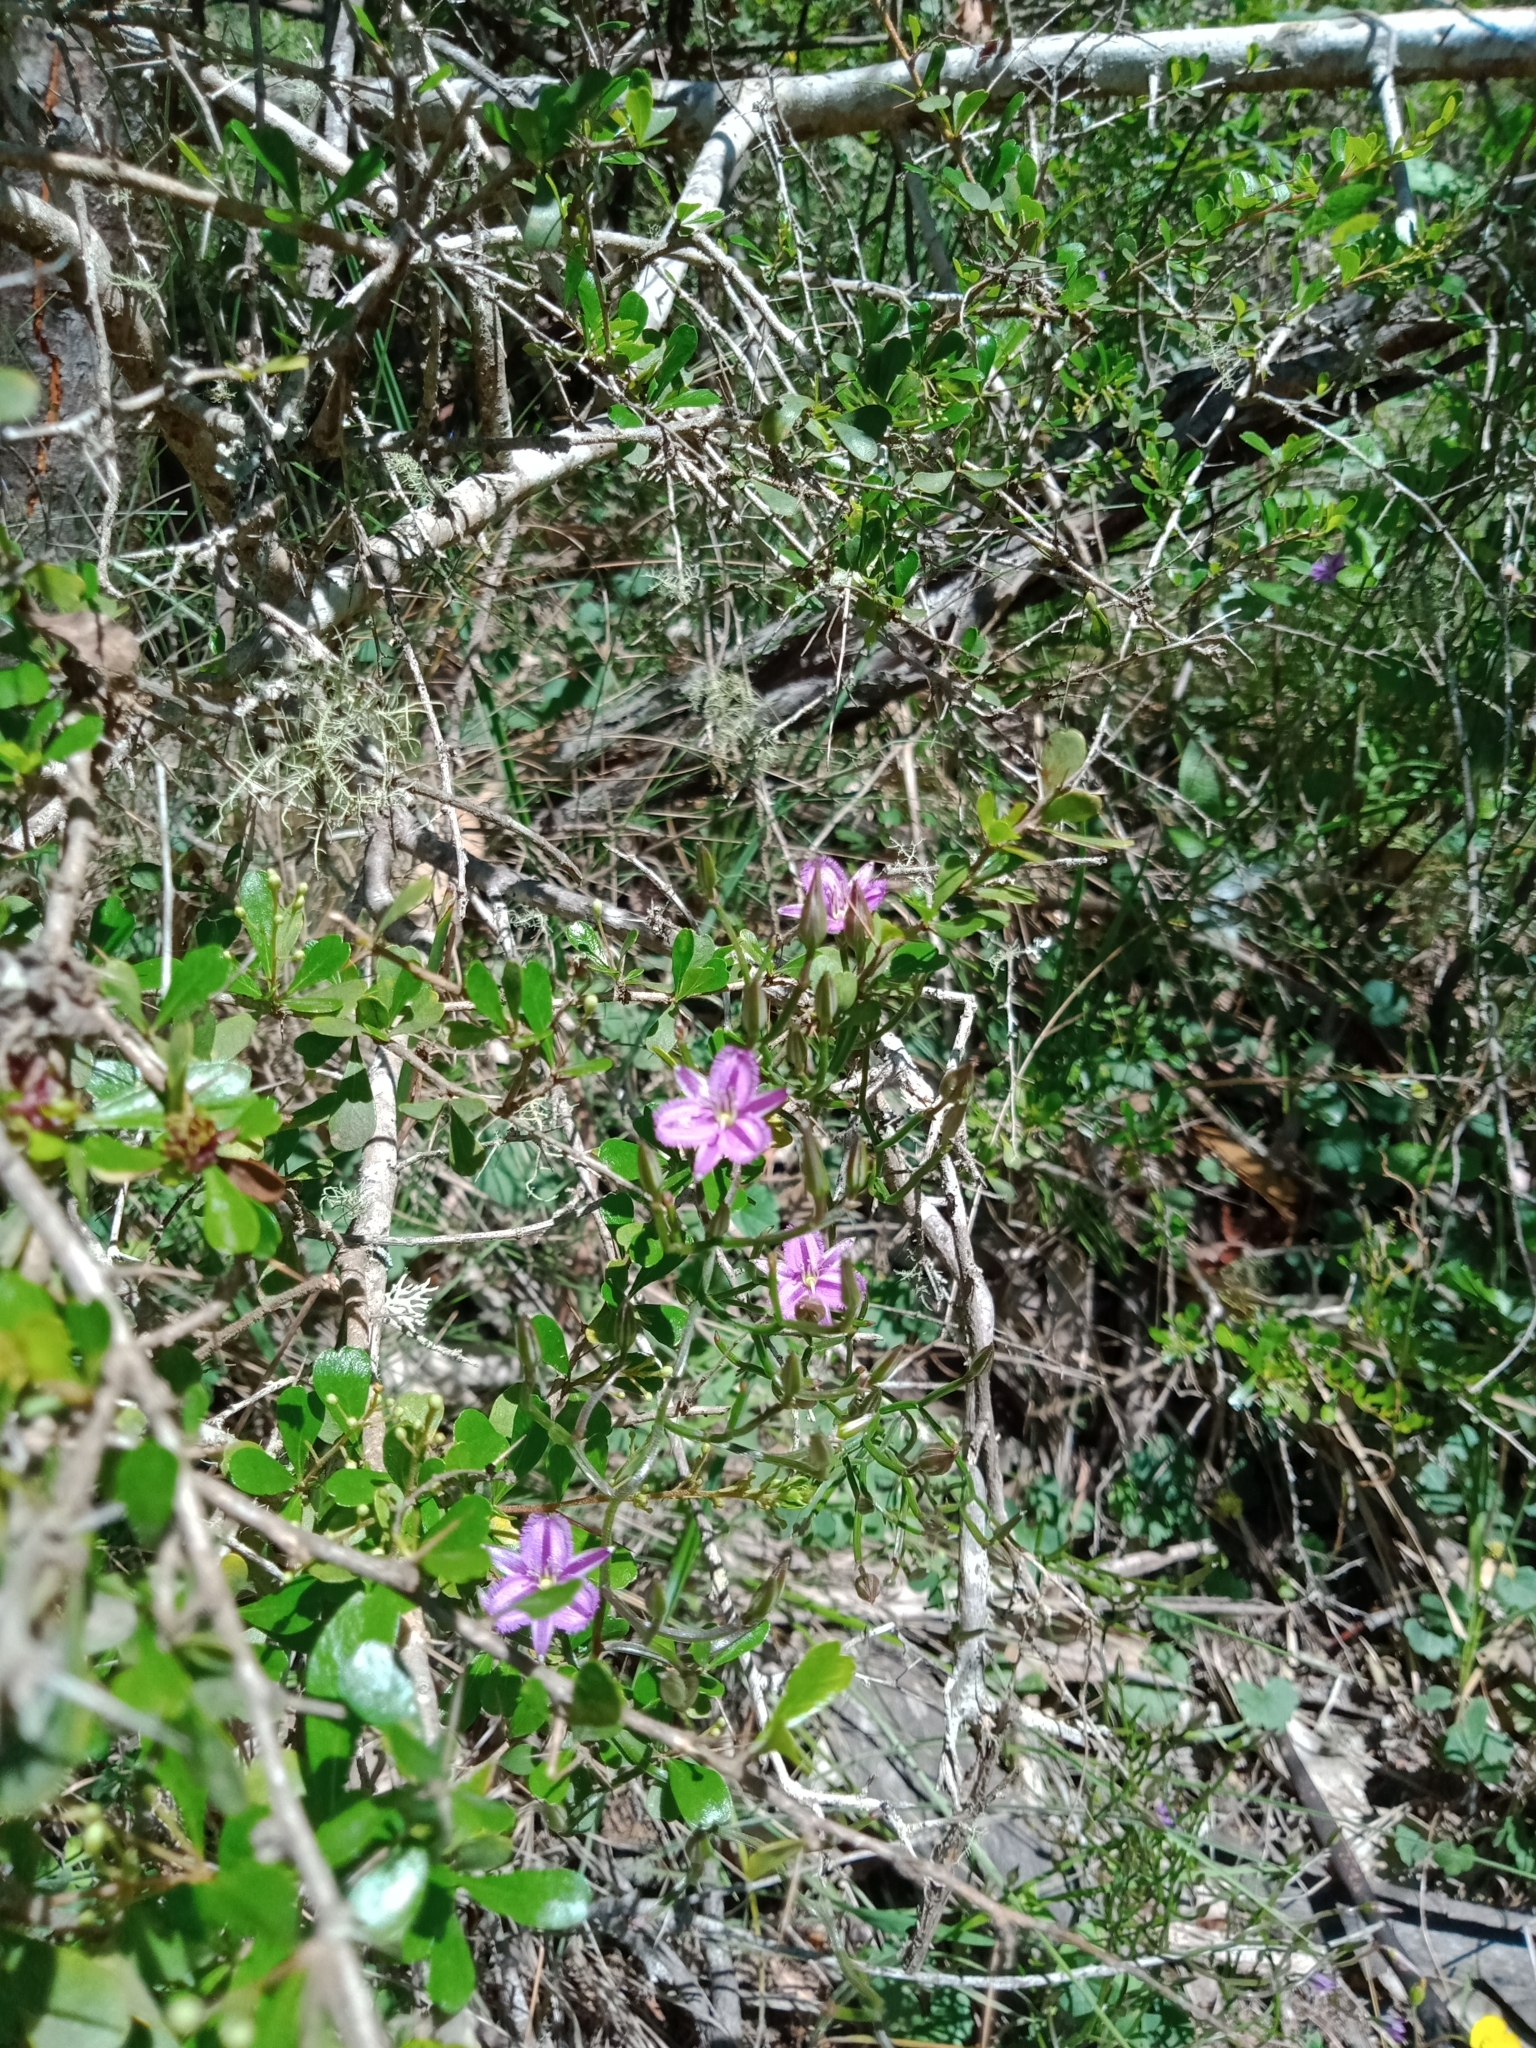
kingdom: Plantae
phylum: Tracheophyta
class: Liliopsida
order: Asparagales
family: Asparagaceae
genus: Thysanotus
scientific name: Thysanotus patersonii
